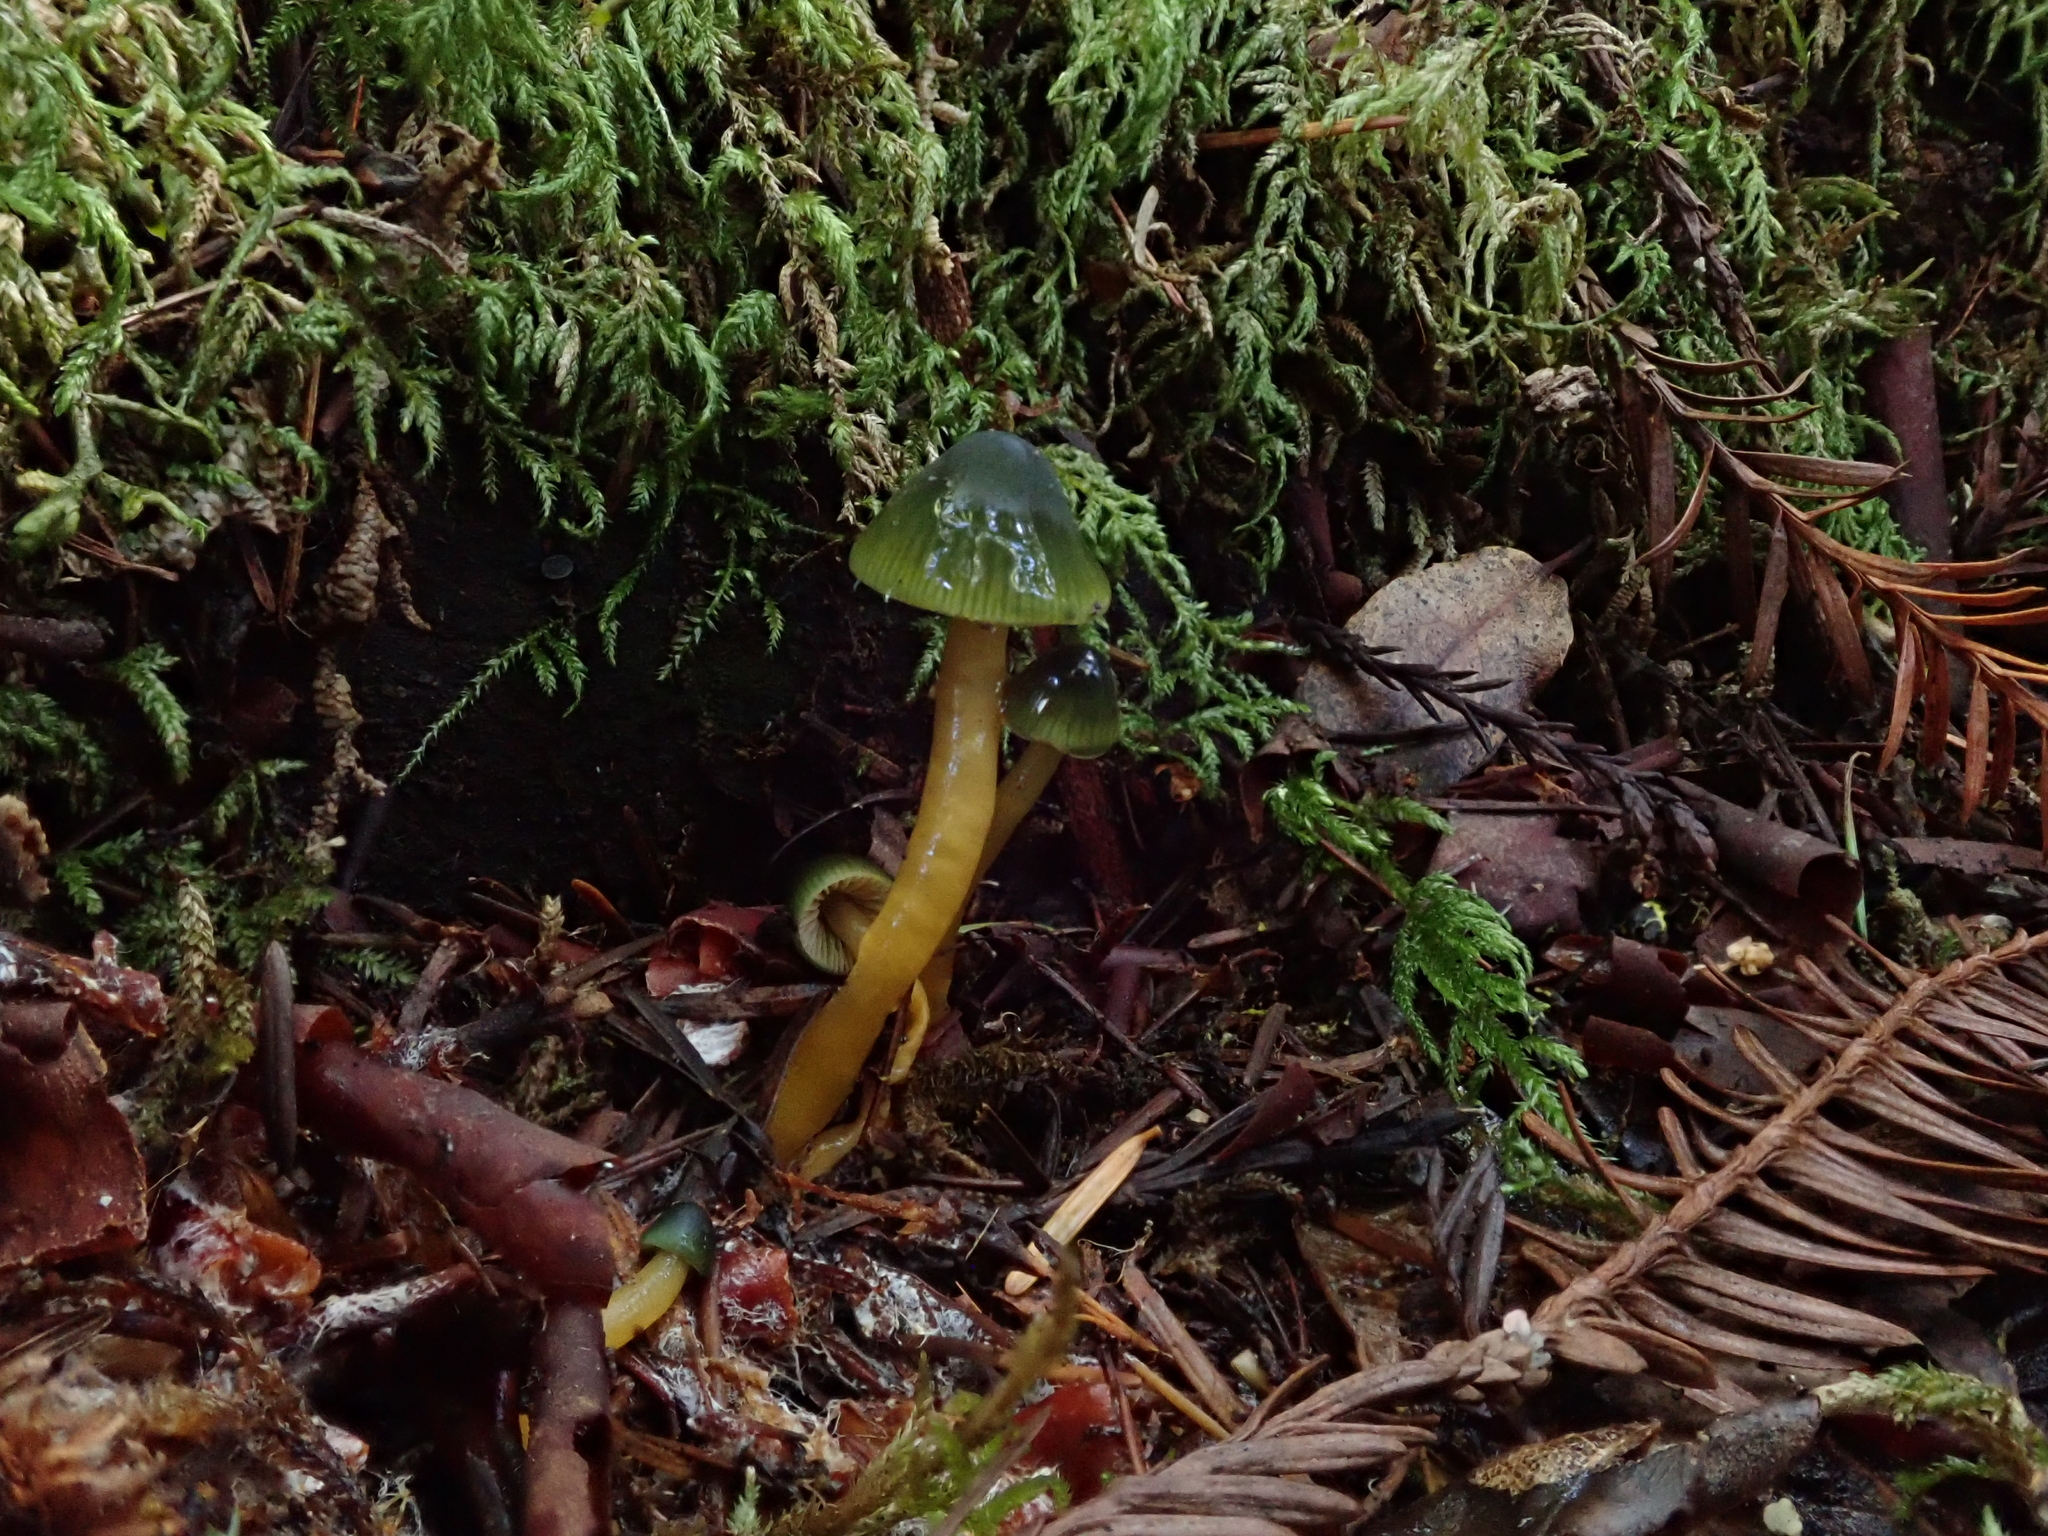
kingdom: Fungi
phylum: Basidiomycota
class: Agaricomycetes
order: Agaricales
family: Hygrophoraceae
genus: Gliophorus
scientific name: Gliophorus psittacinus
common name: Parrot wax-cap
